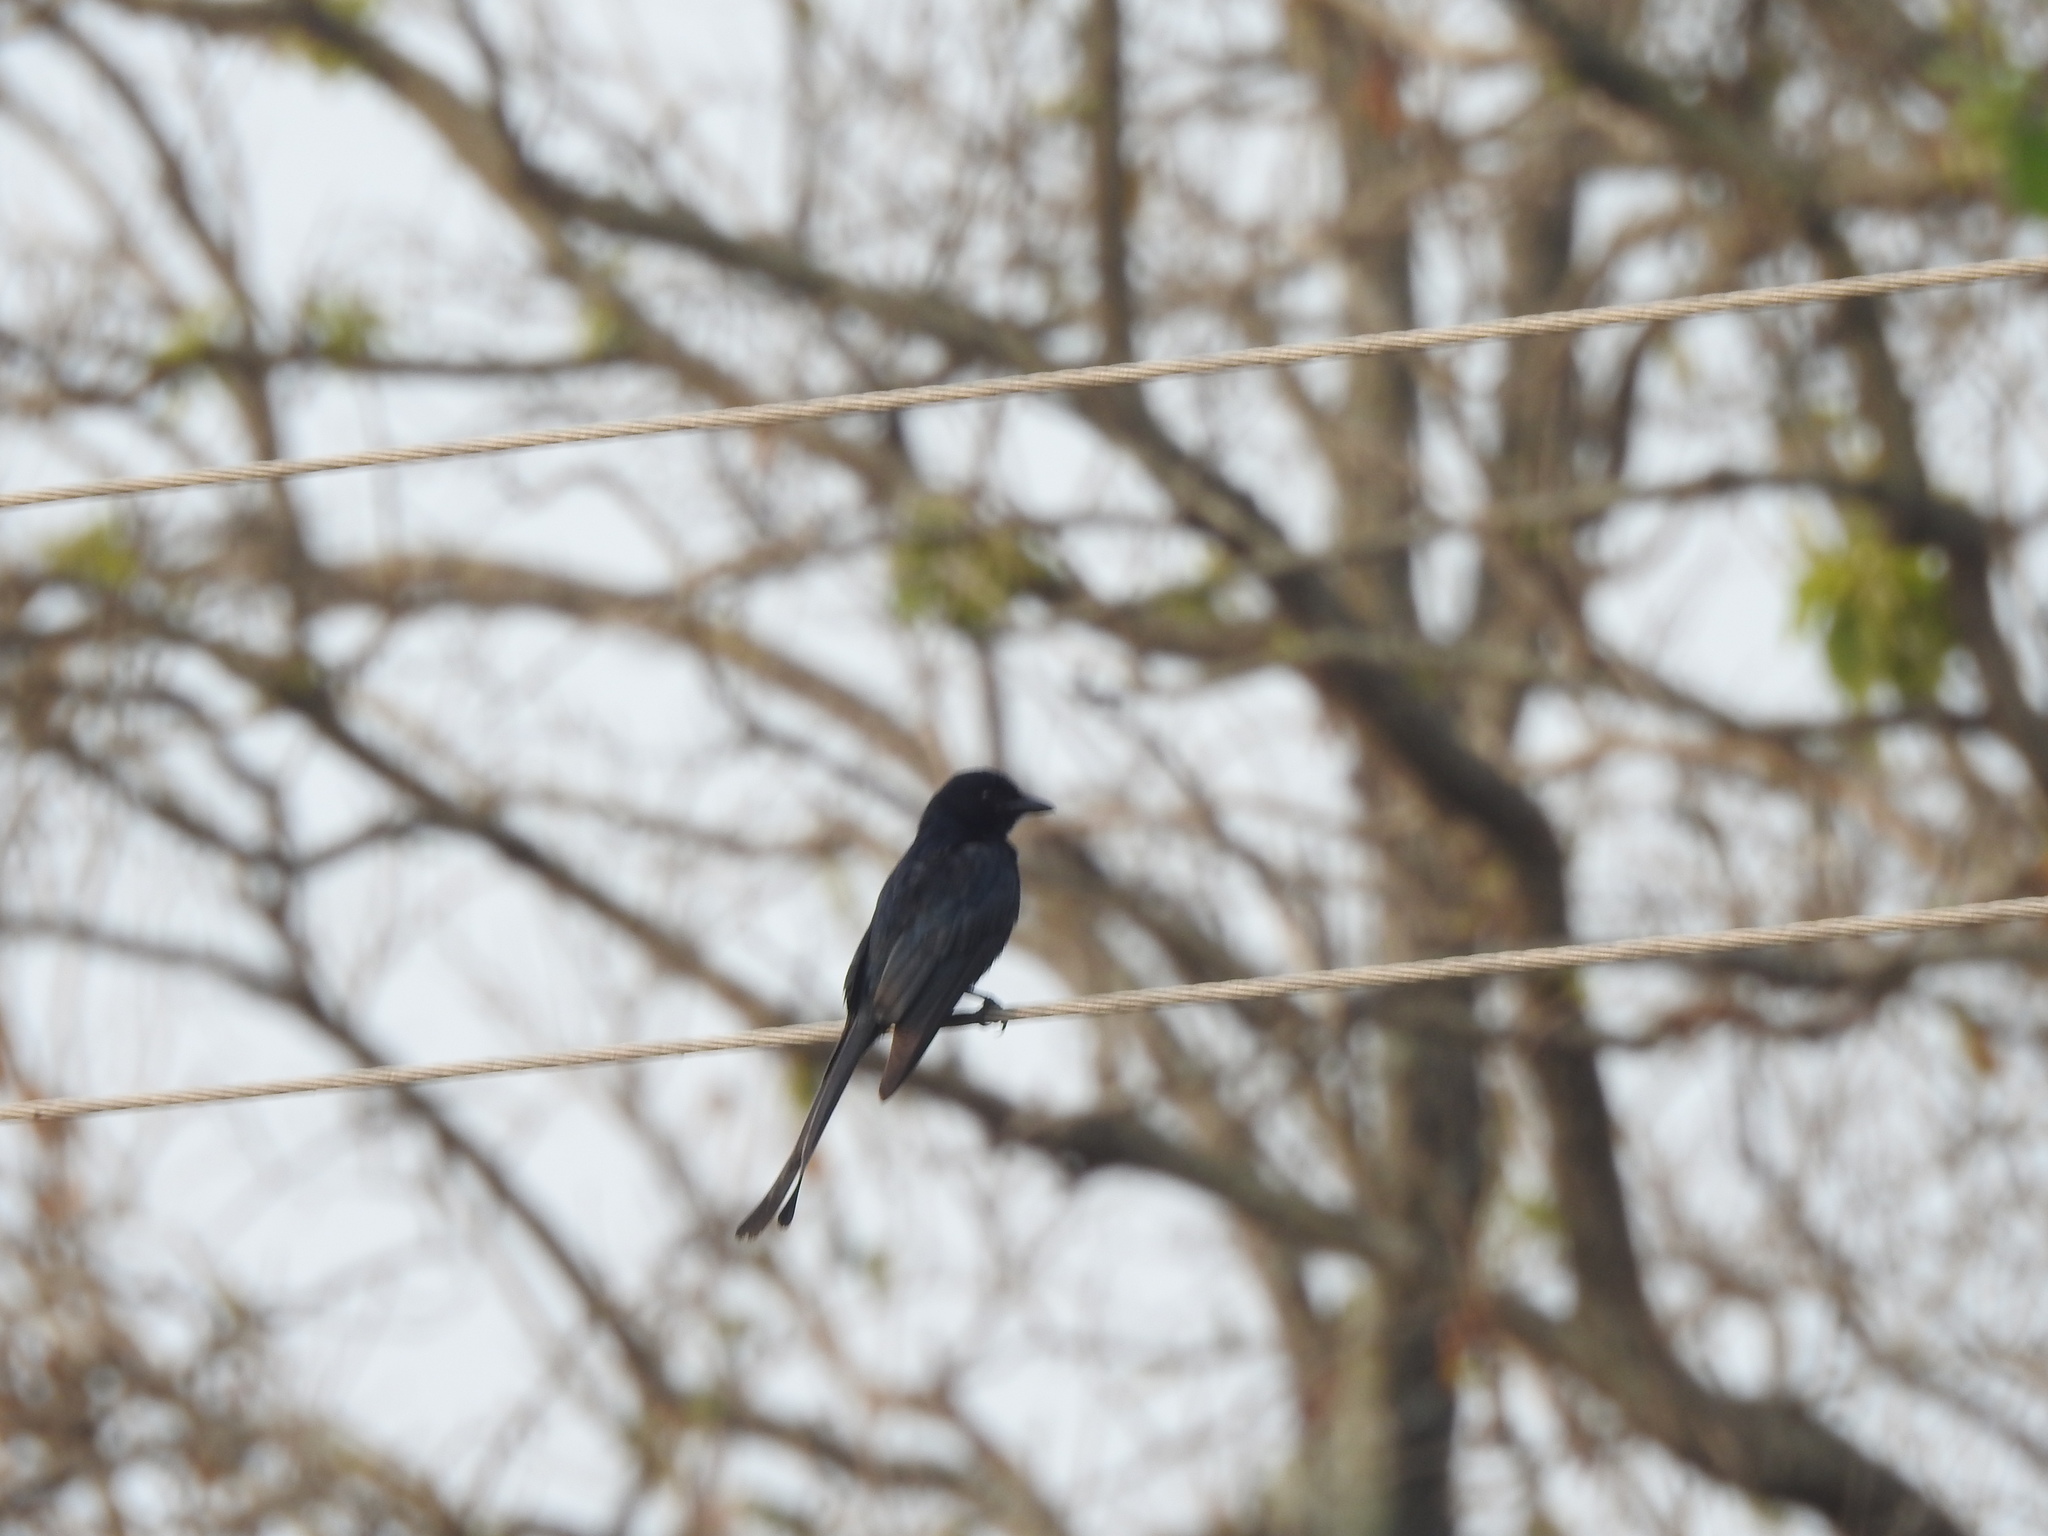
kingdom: Animalia
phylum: Chordata
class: Aves
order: Passeriformes
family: Dicruridae
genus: Dicrurus
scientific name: Dicrurus macrocercus
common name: Black drongo
